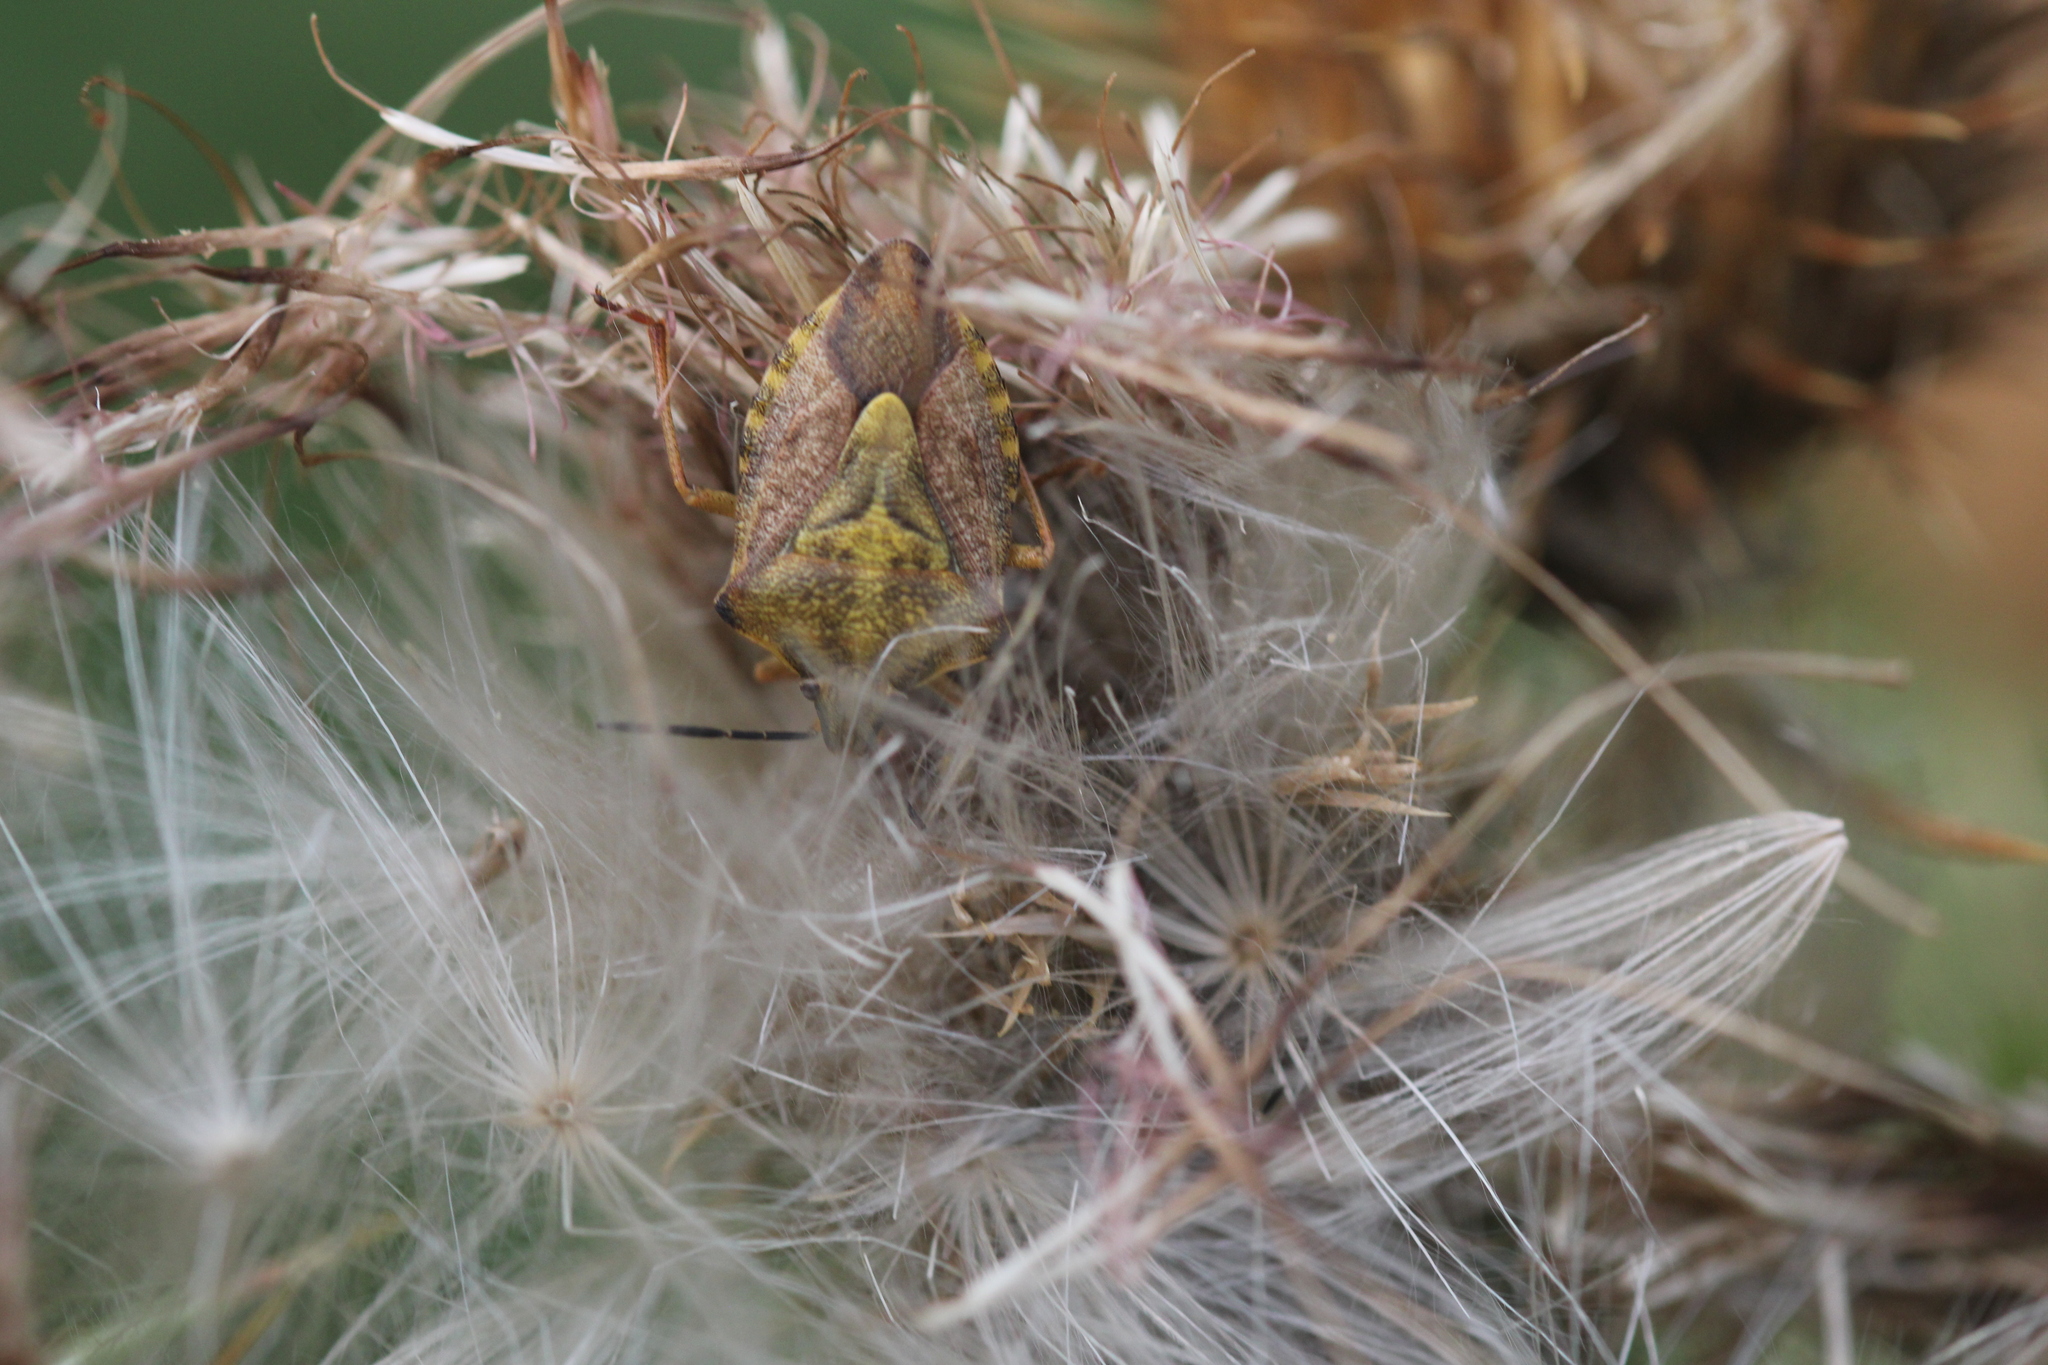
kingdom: Animalia
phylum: Arthropoda
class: Insecta
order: Hemiptera
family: Pentatomidae
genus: Carpocoris
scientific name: Carpocoris purpureipennis
